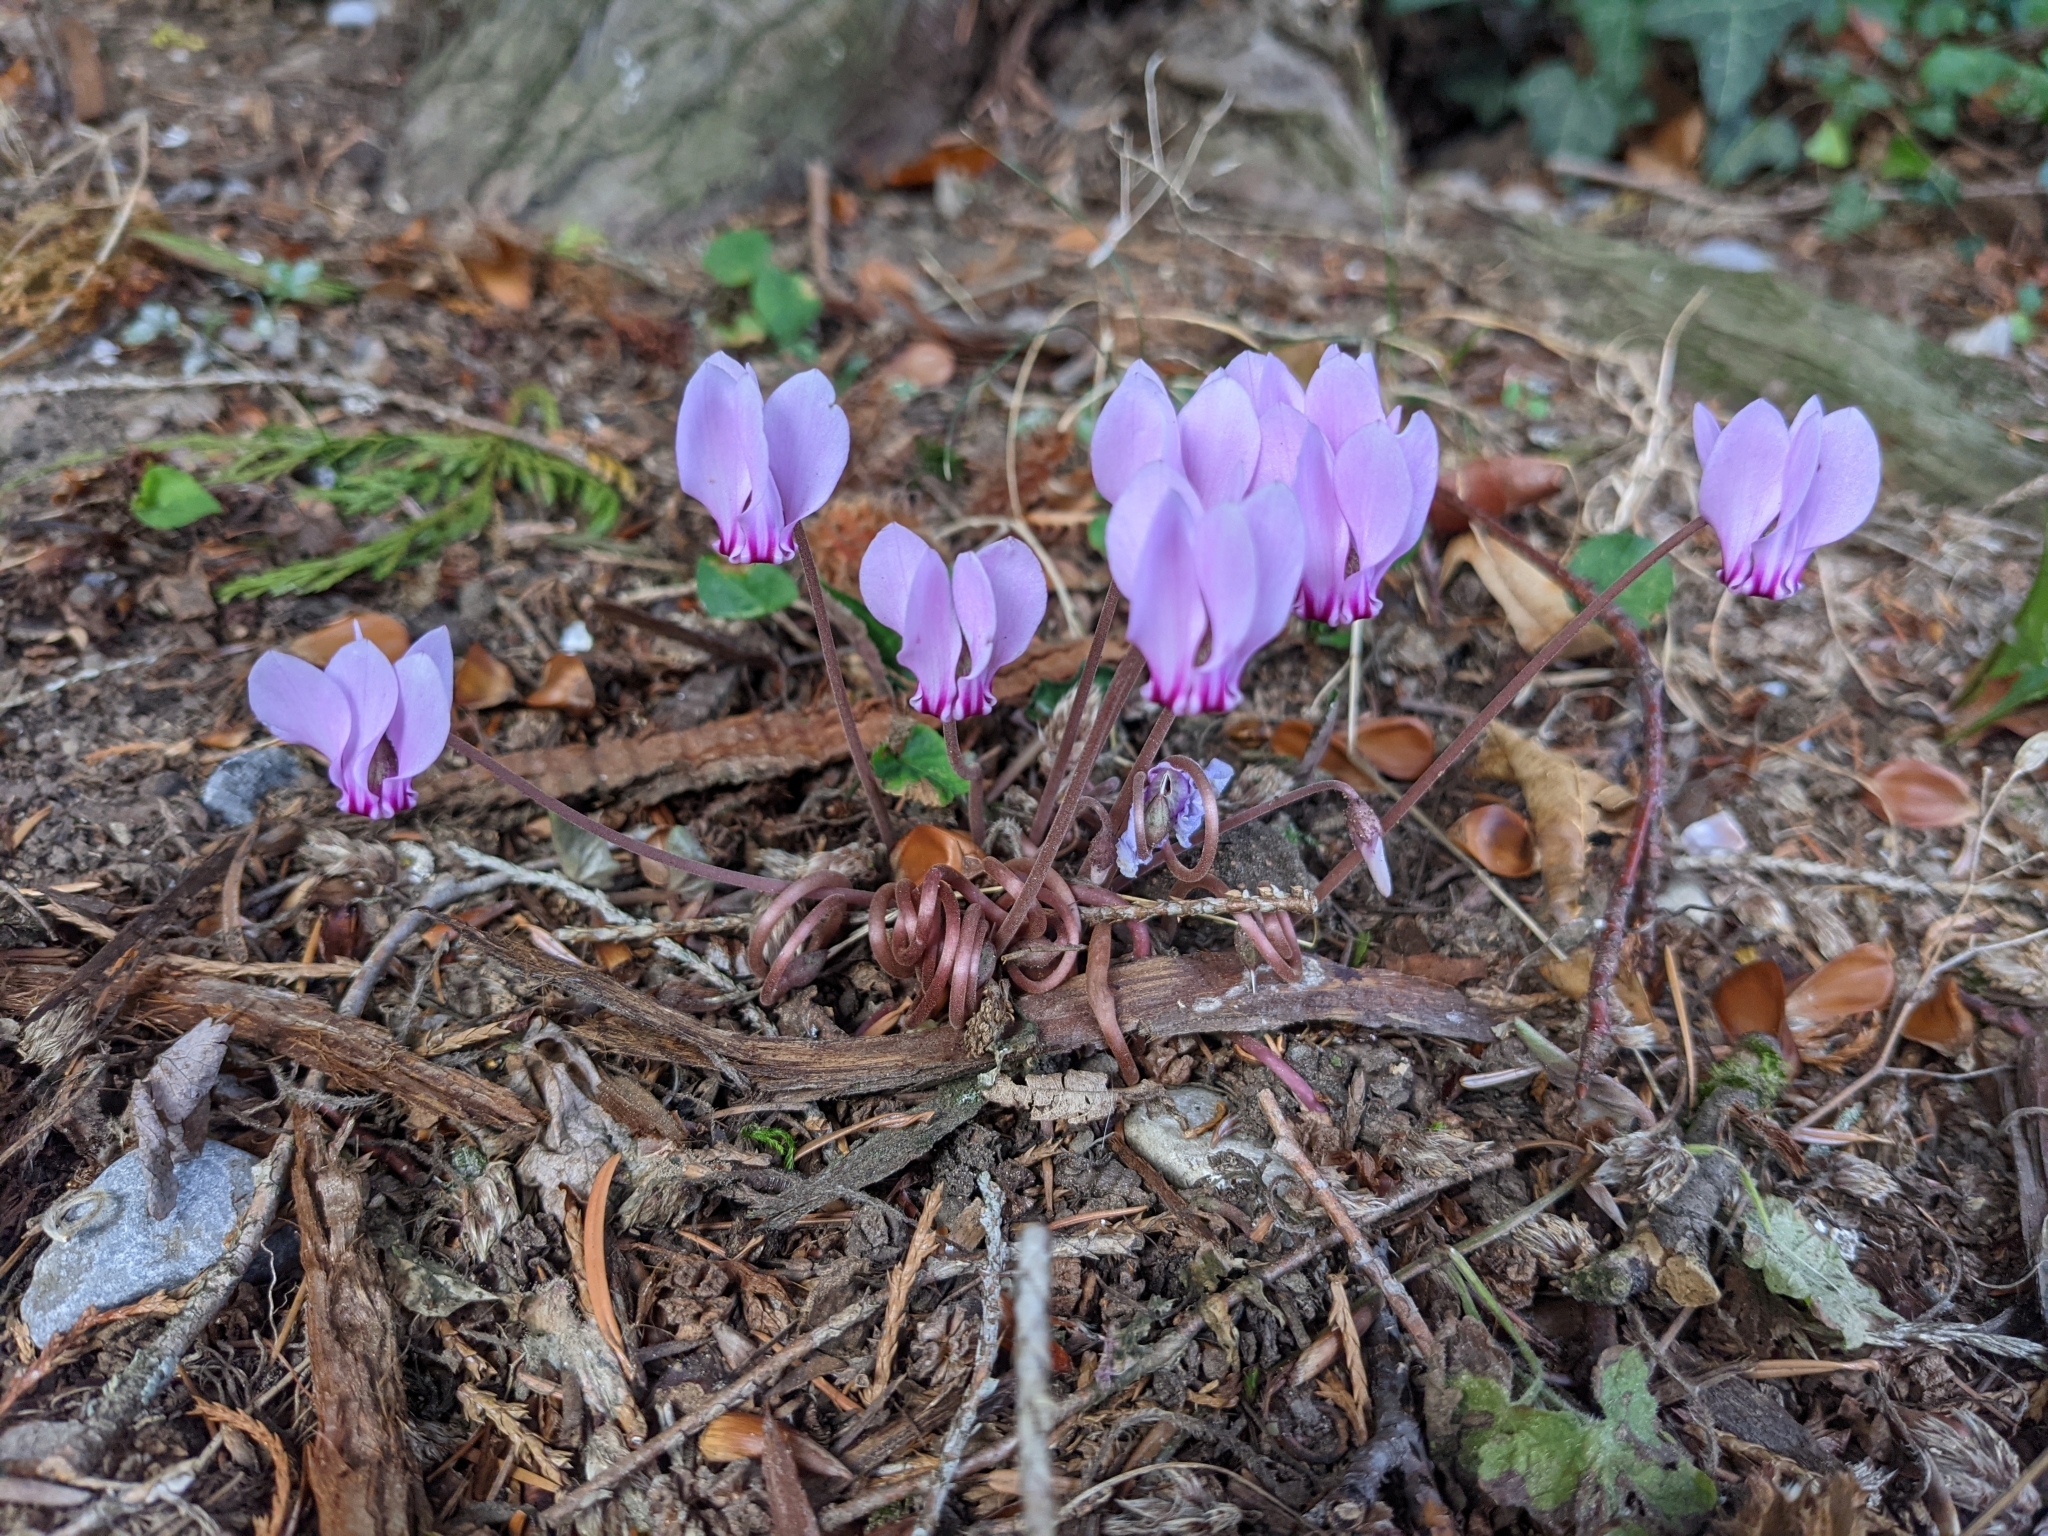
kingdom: Plantae
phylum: Tracheophyta
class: Magnoliopsida
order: Ericales
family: Primulaceae
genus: Cyclamen
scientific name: Cyclamen hederifolium
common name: Sowbread
